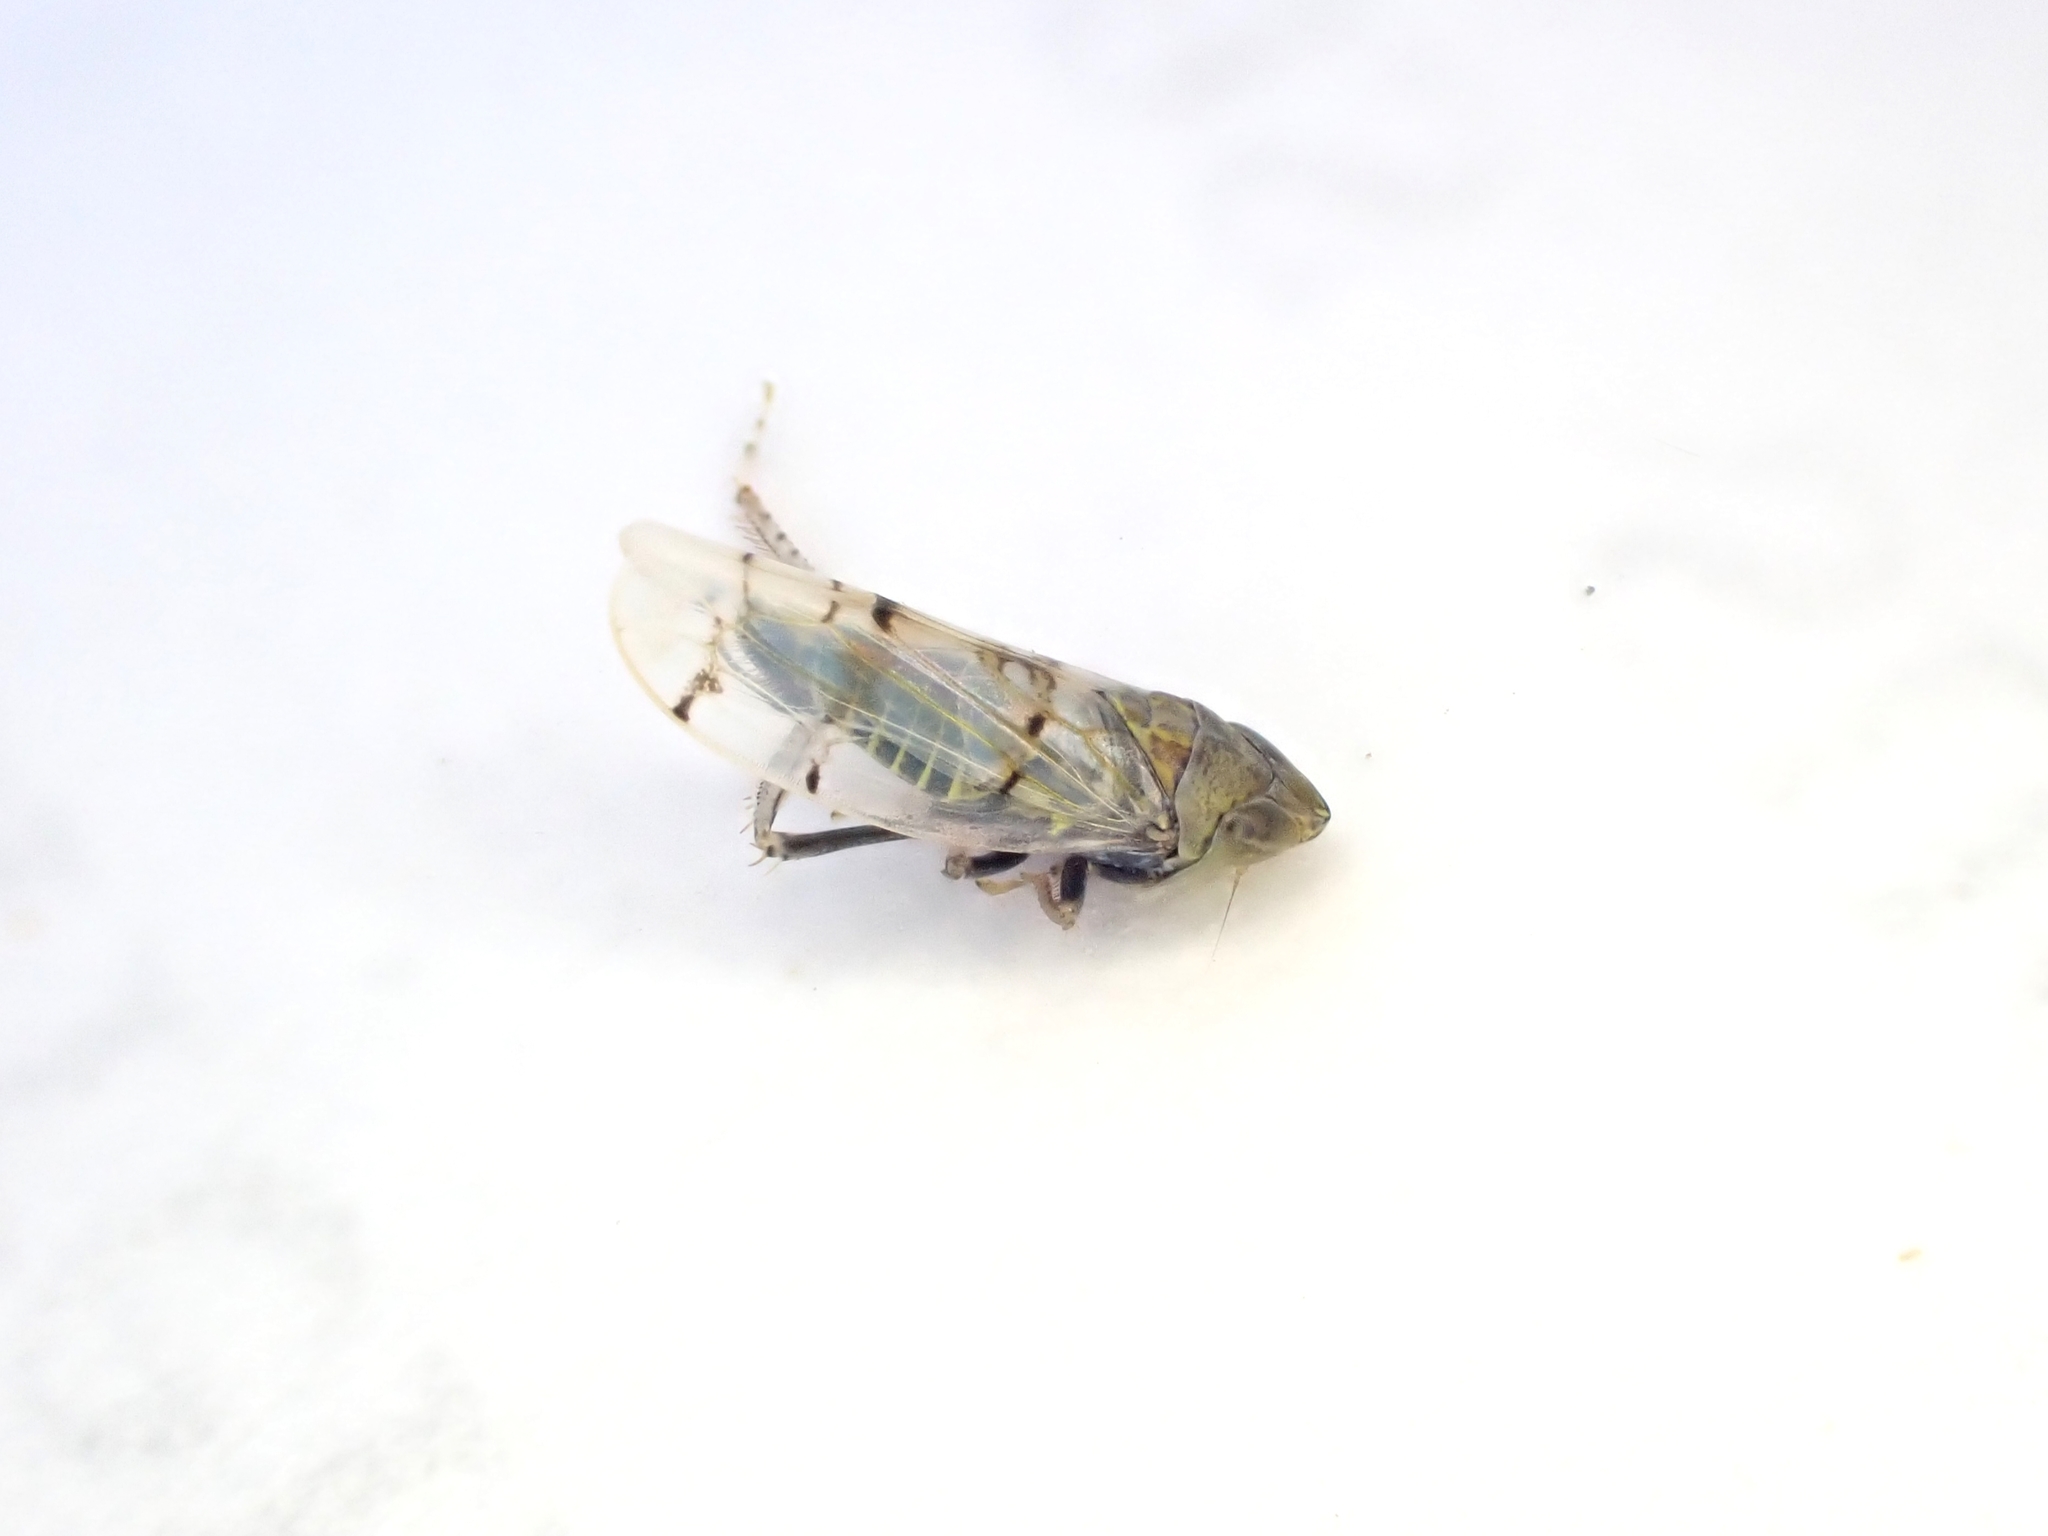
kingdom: Animalia
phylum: Arthropoda
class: Insecta
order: Hemiptera
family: Cicadellidae
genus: Japananus
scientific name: Japananus hyalinus
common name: The japanese maple leafhopper
